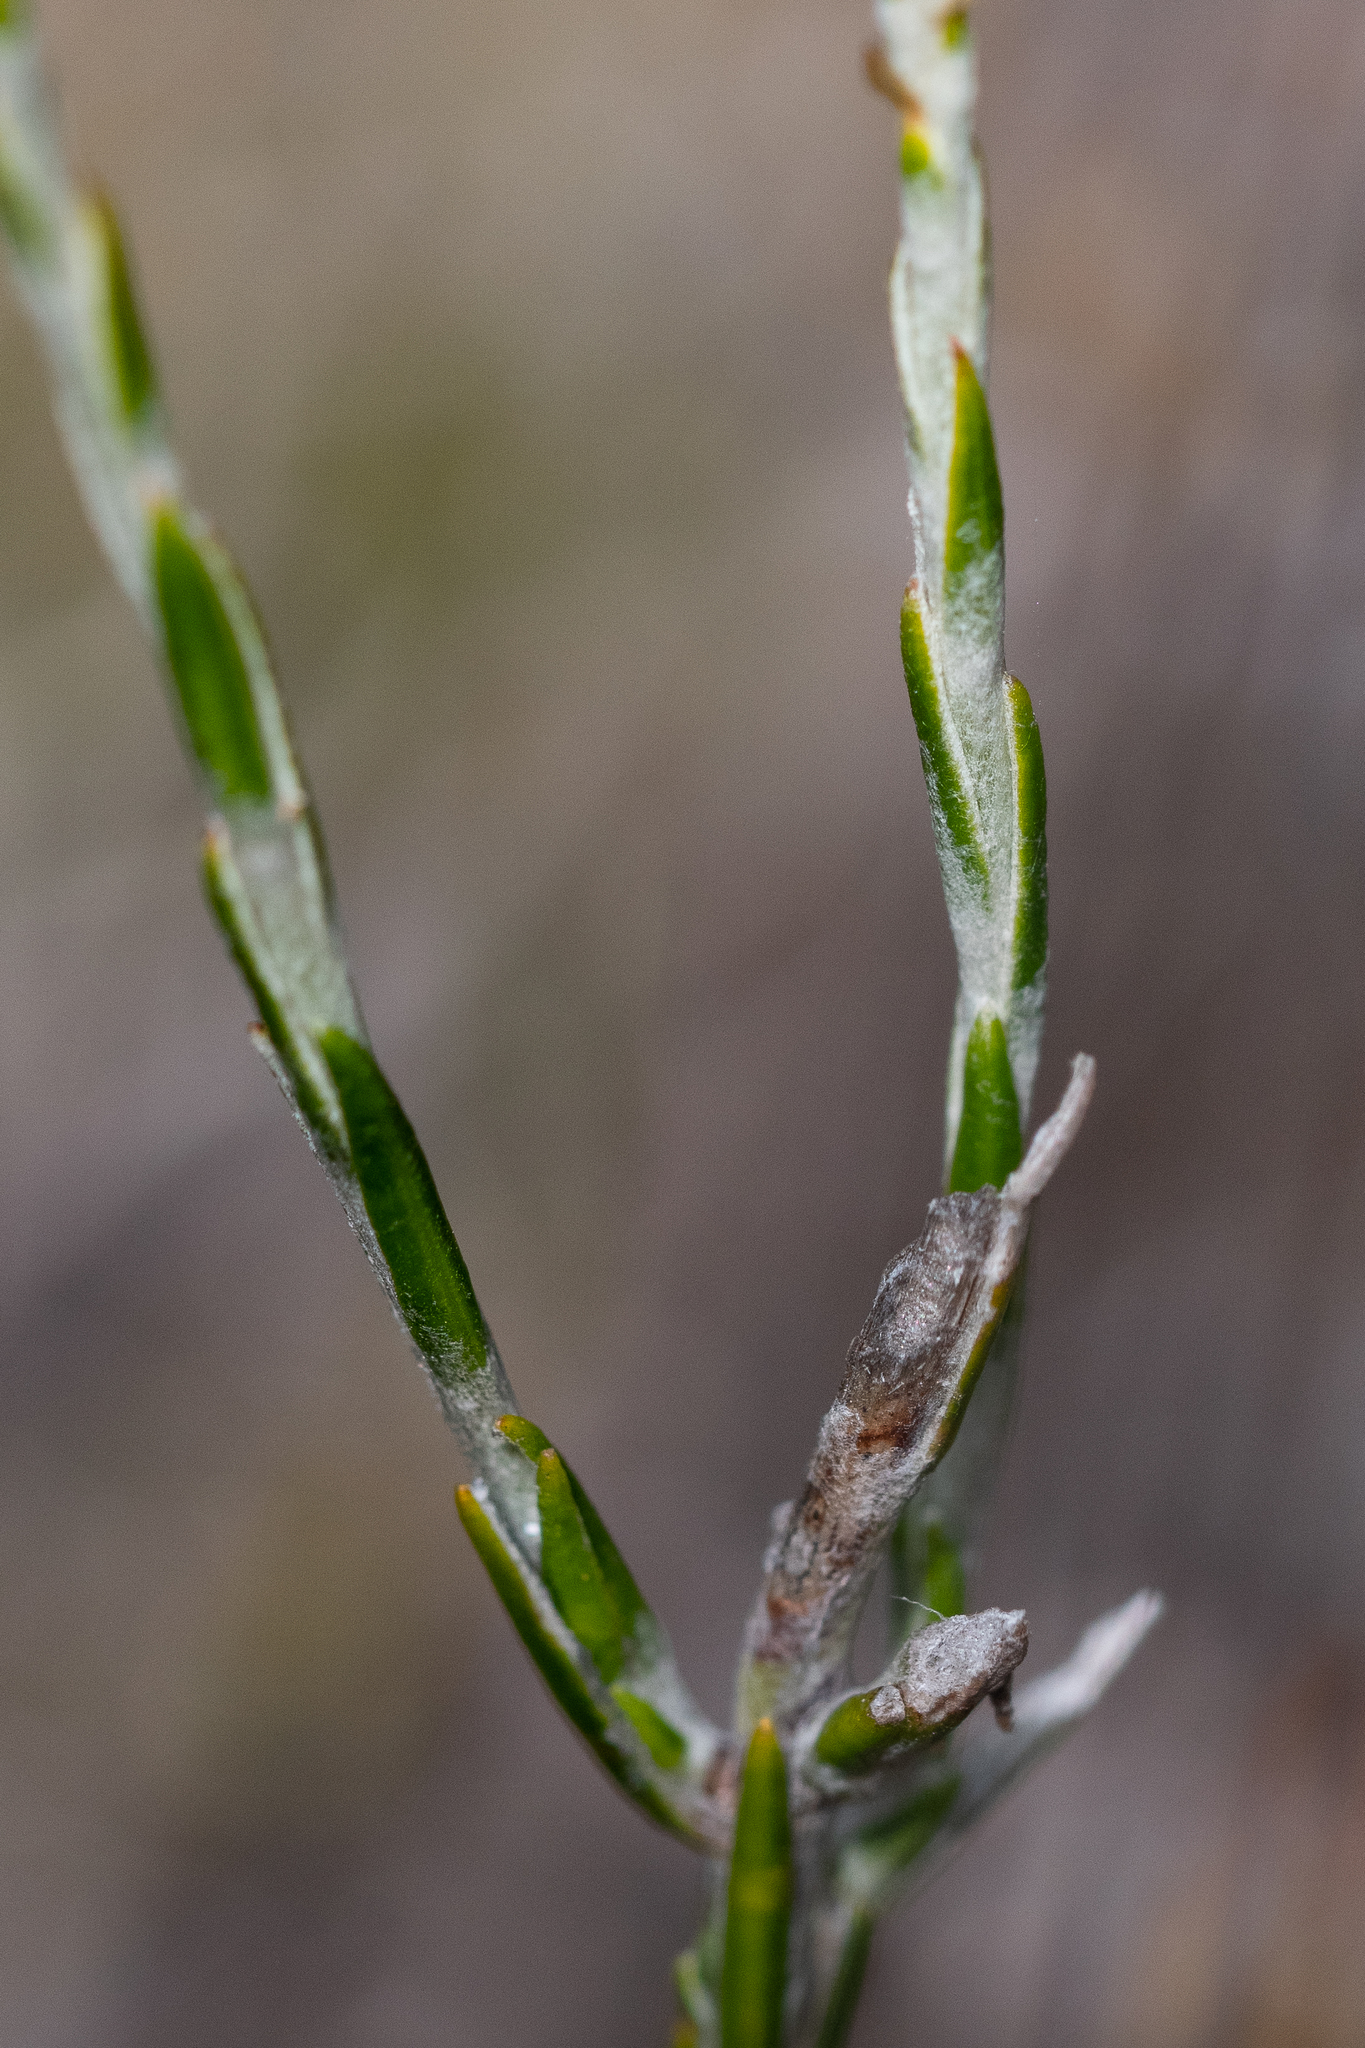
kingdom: Plantae
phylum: Tracheophyta
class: Magnoliopsida
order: Asterales
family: Asteraceae
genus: Edmondia
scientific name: Edmondia sesamoides
